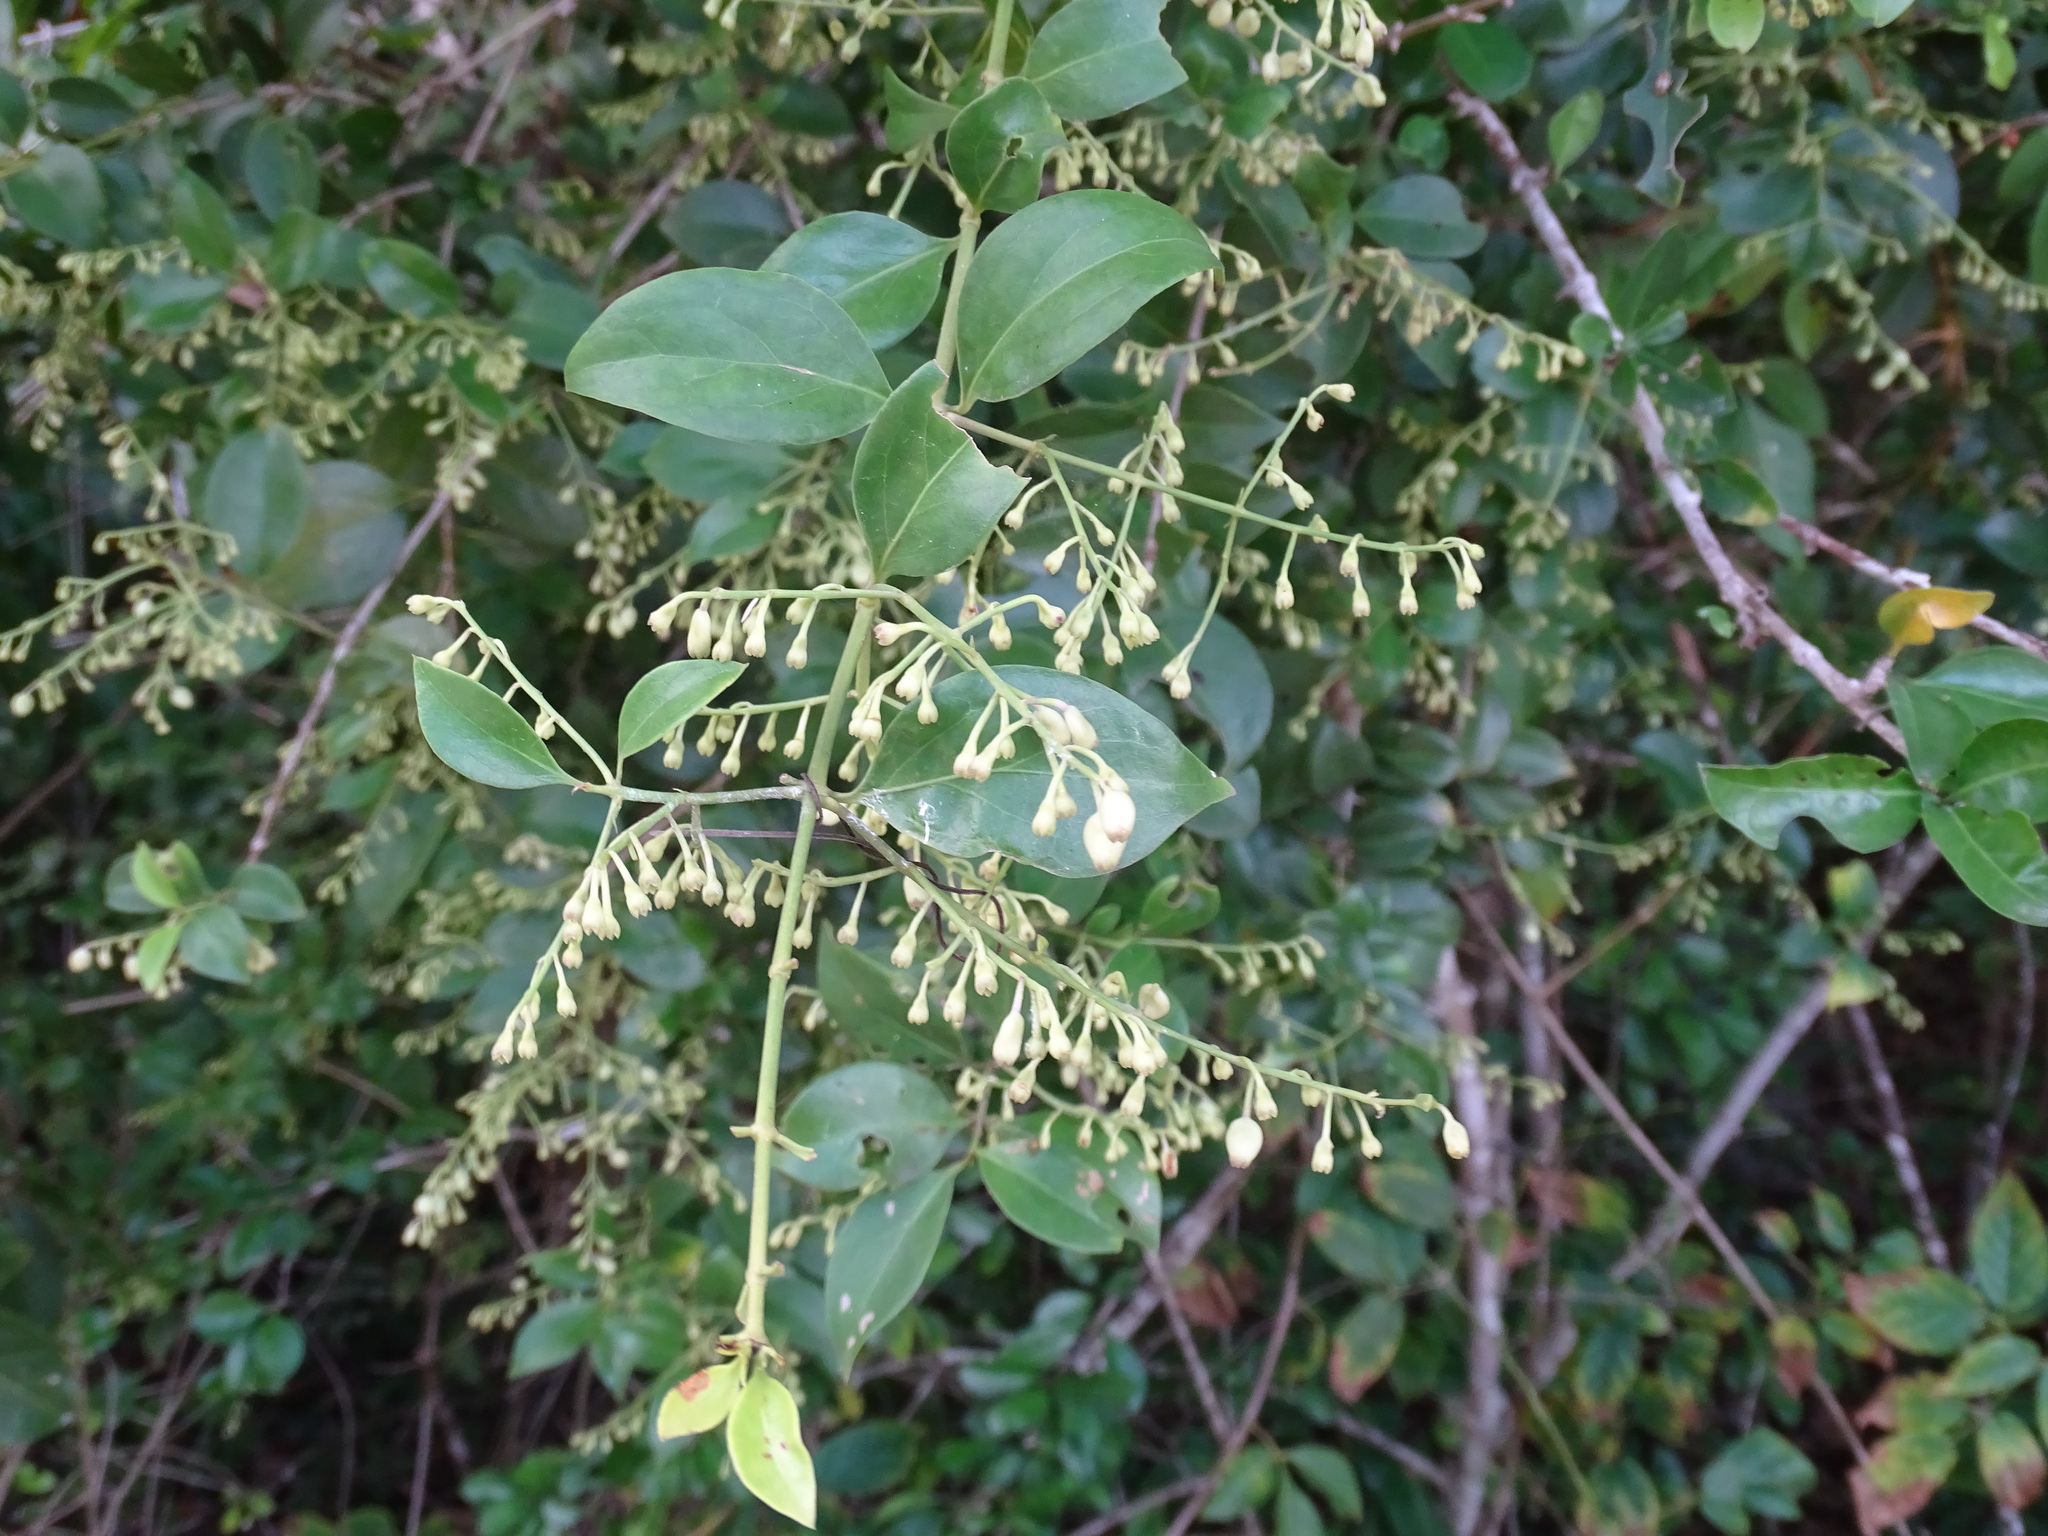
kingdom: Plantae
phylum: Tracheophyta
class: Magnoliopsida
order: Gentianales
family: Rubiaceae
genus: Chiococca
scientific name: Chiococca alba
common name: Snowberry
